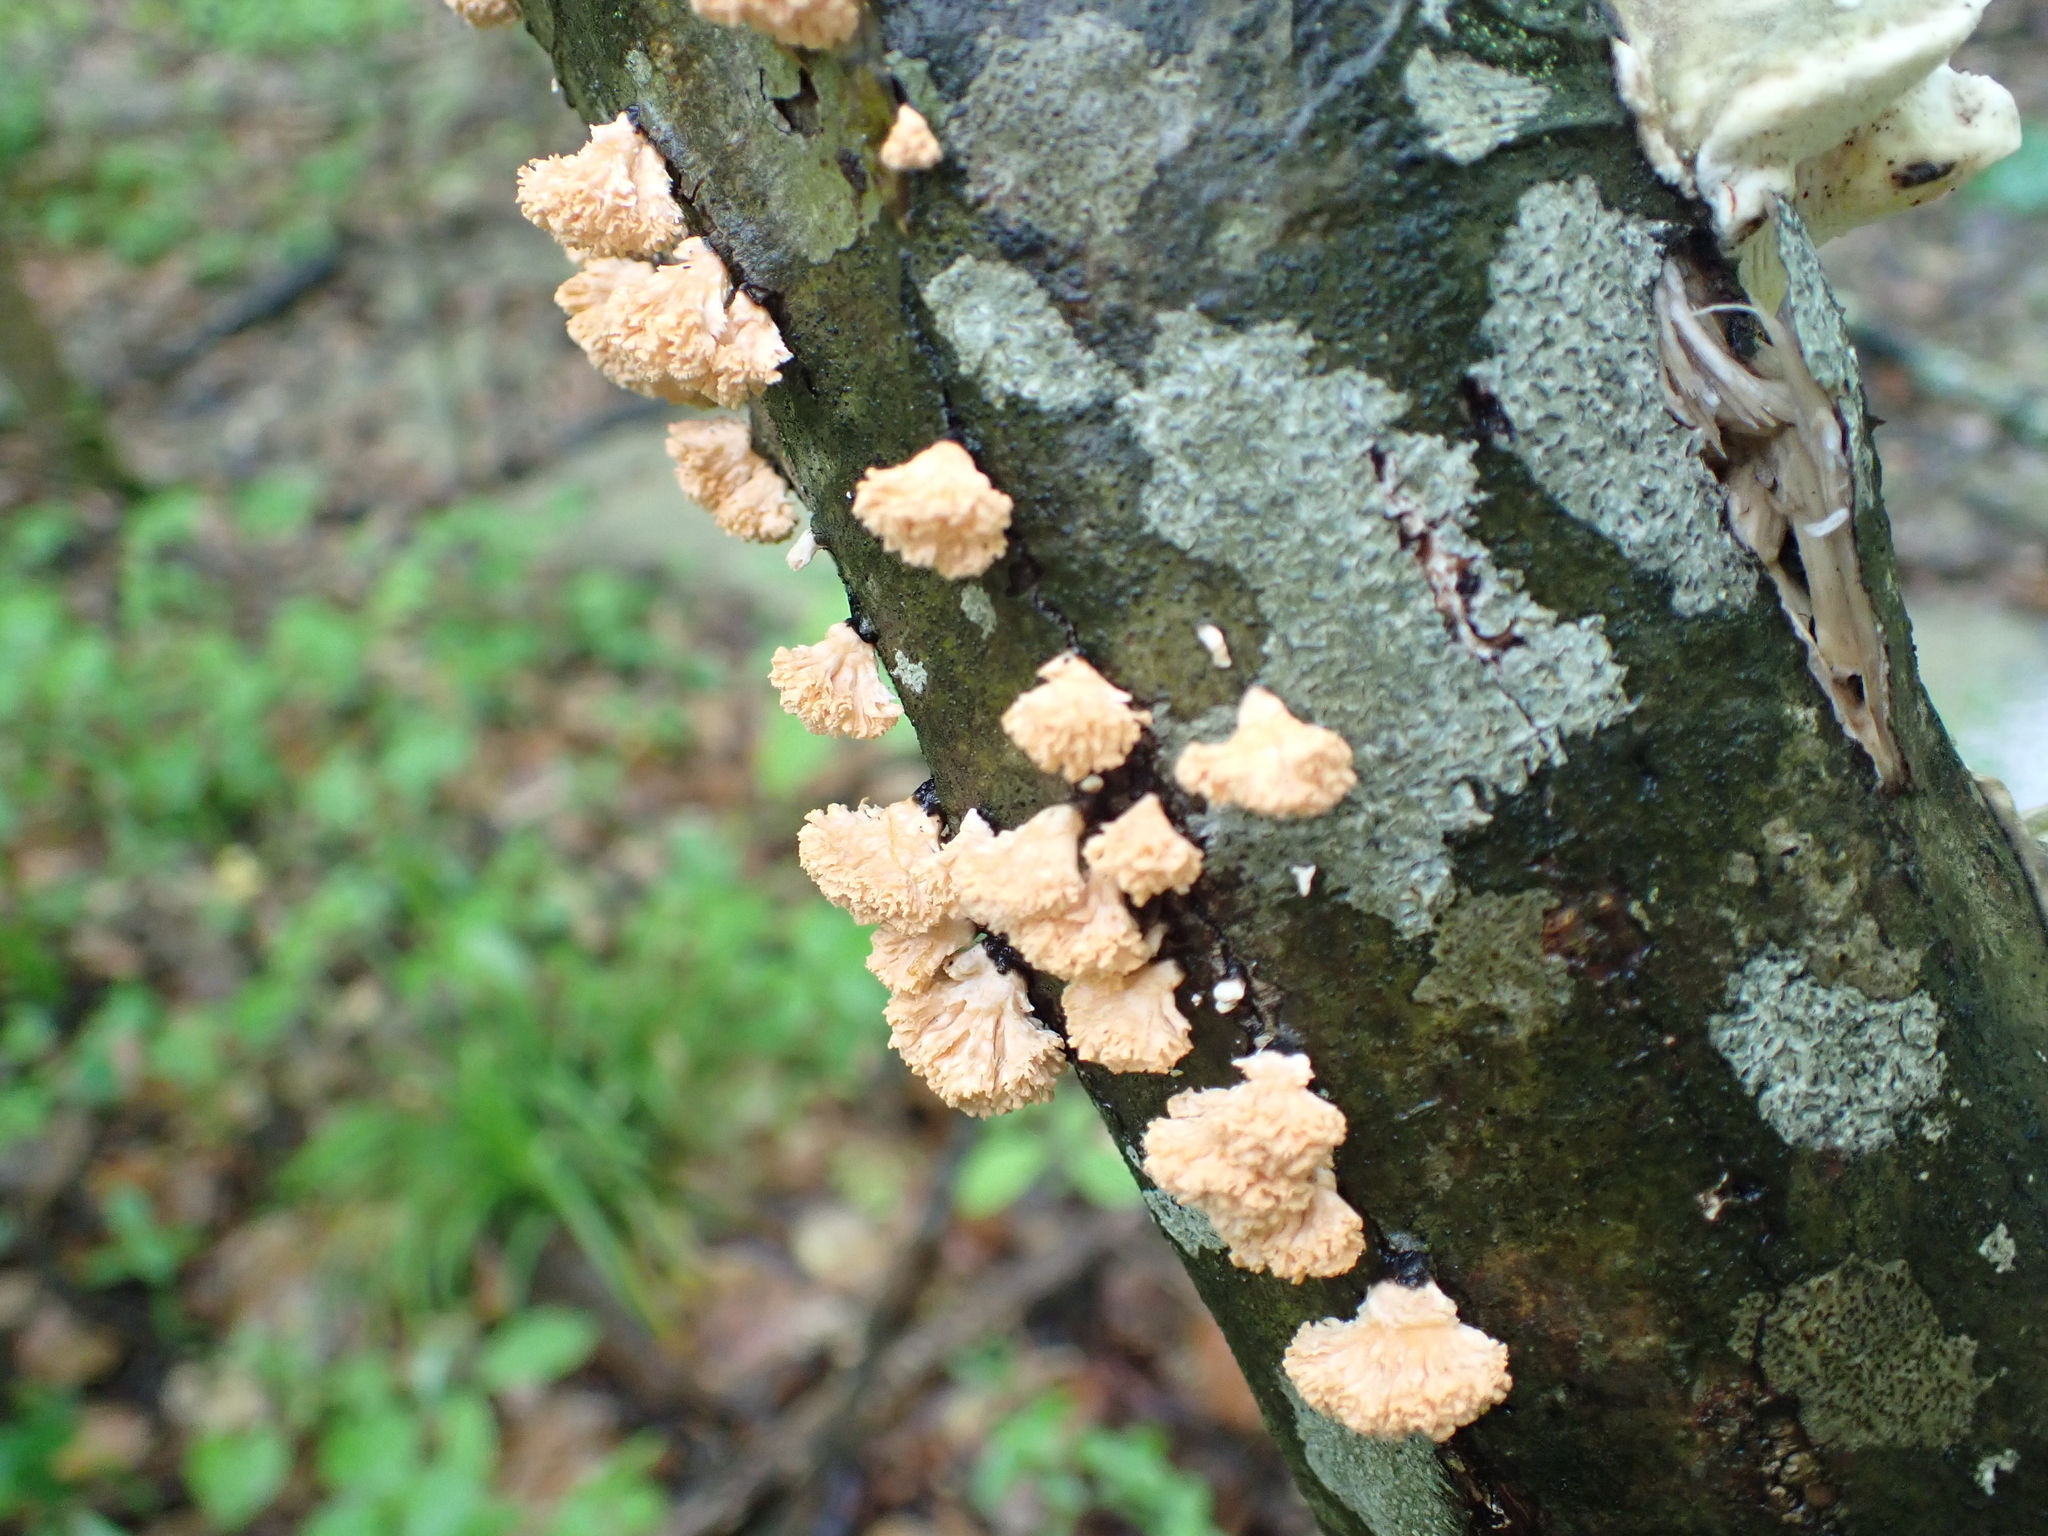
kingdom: Fungi
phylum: Ascomycota
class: Sordariomycetes
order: Xylariales
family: Xylariaceae
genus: Xylaria
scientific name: Xylaria cubensis
